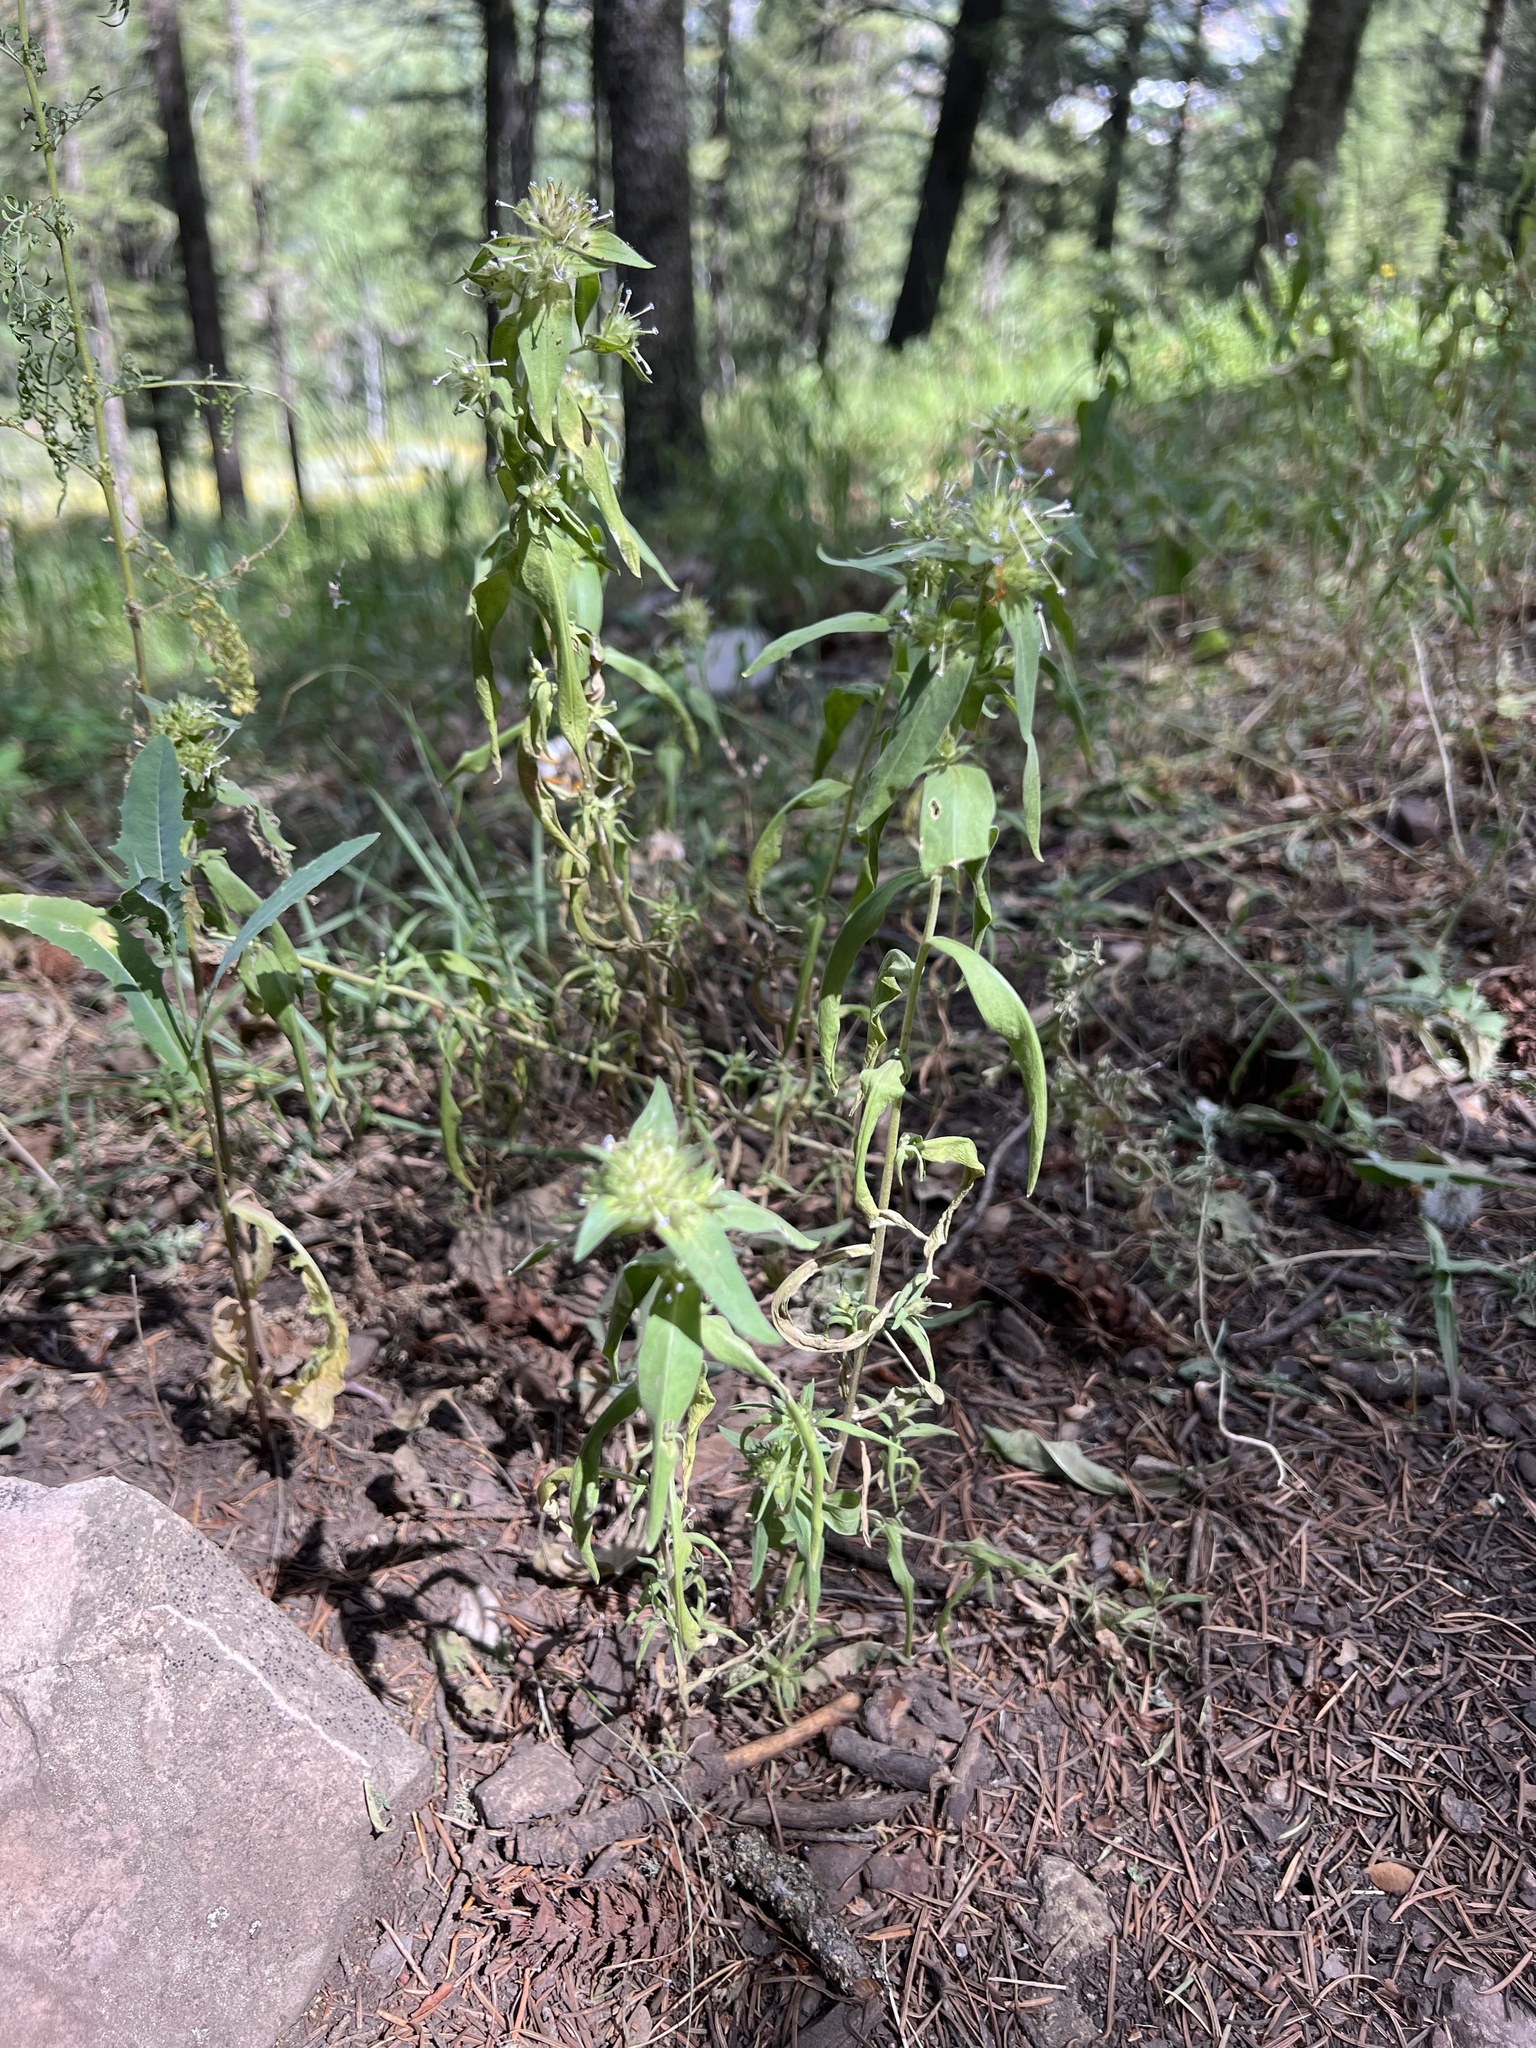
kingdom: Plantae
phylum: Tracheophyta
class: Magnoliopsida
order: Ericales
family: Polemoniaceae
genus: Collomia
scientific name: Collomia linearis
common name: Tiny trumpet
